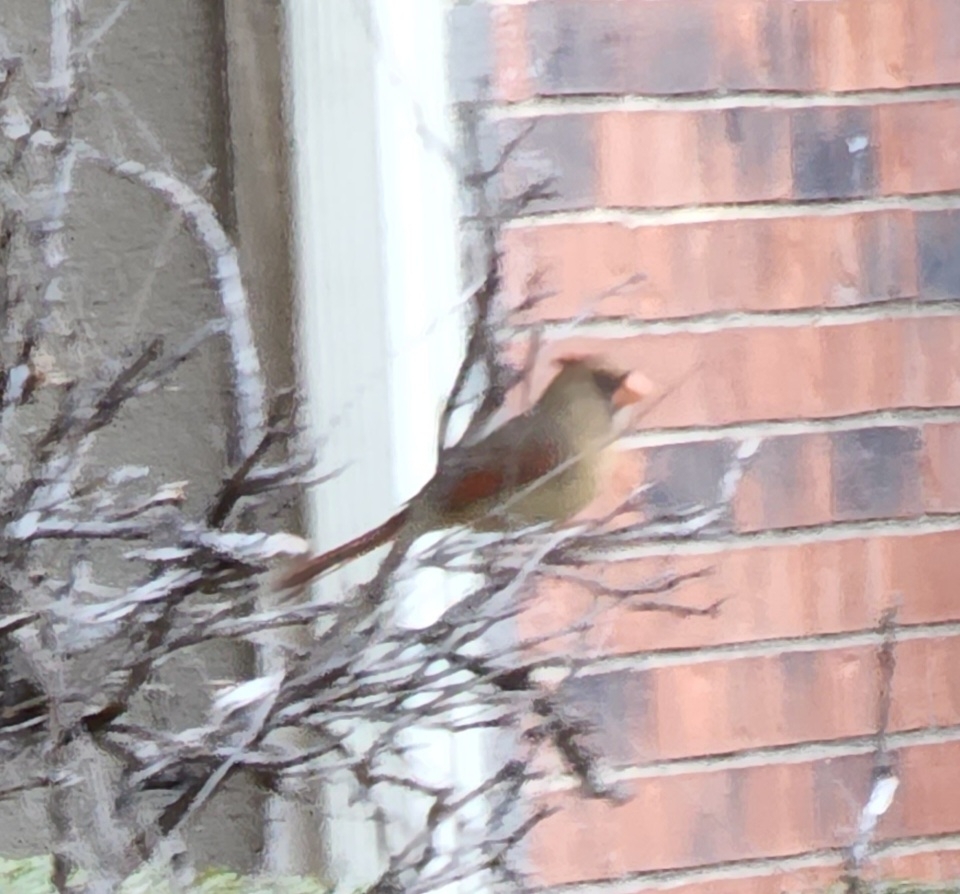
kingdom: Animalia
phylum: Chordata
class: Aves
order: Passeriformes
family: Cardinalidae
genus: Cardinalis
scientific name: Cardinalis cardinalis
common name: Northern cardinal
